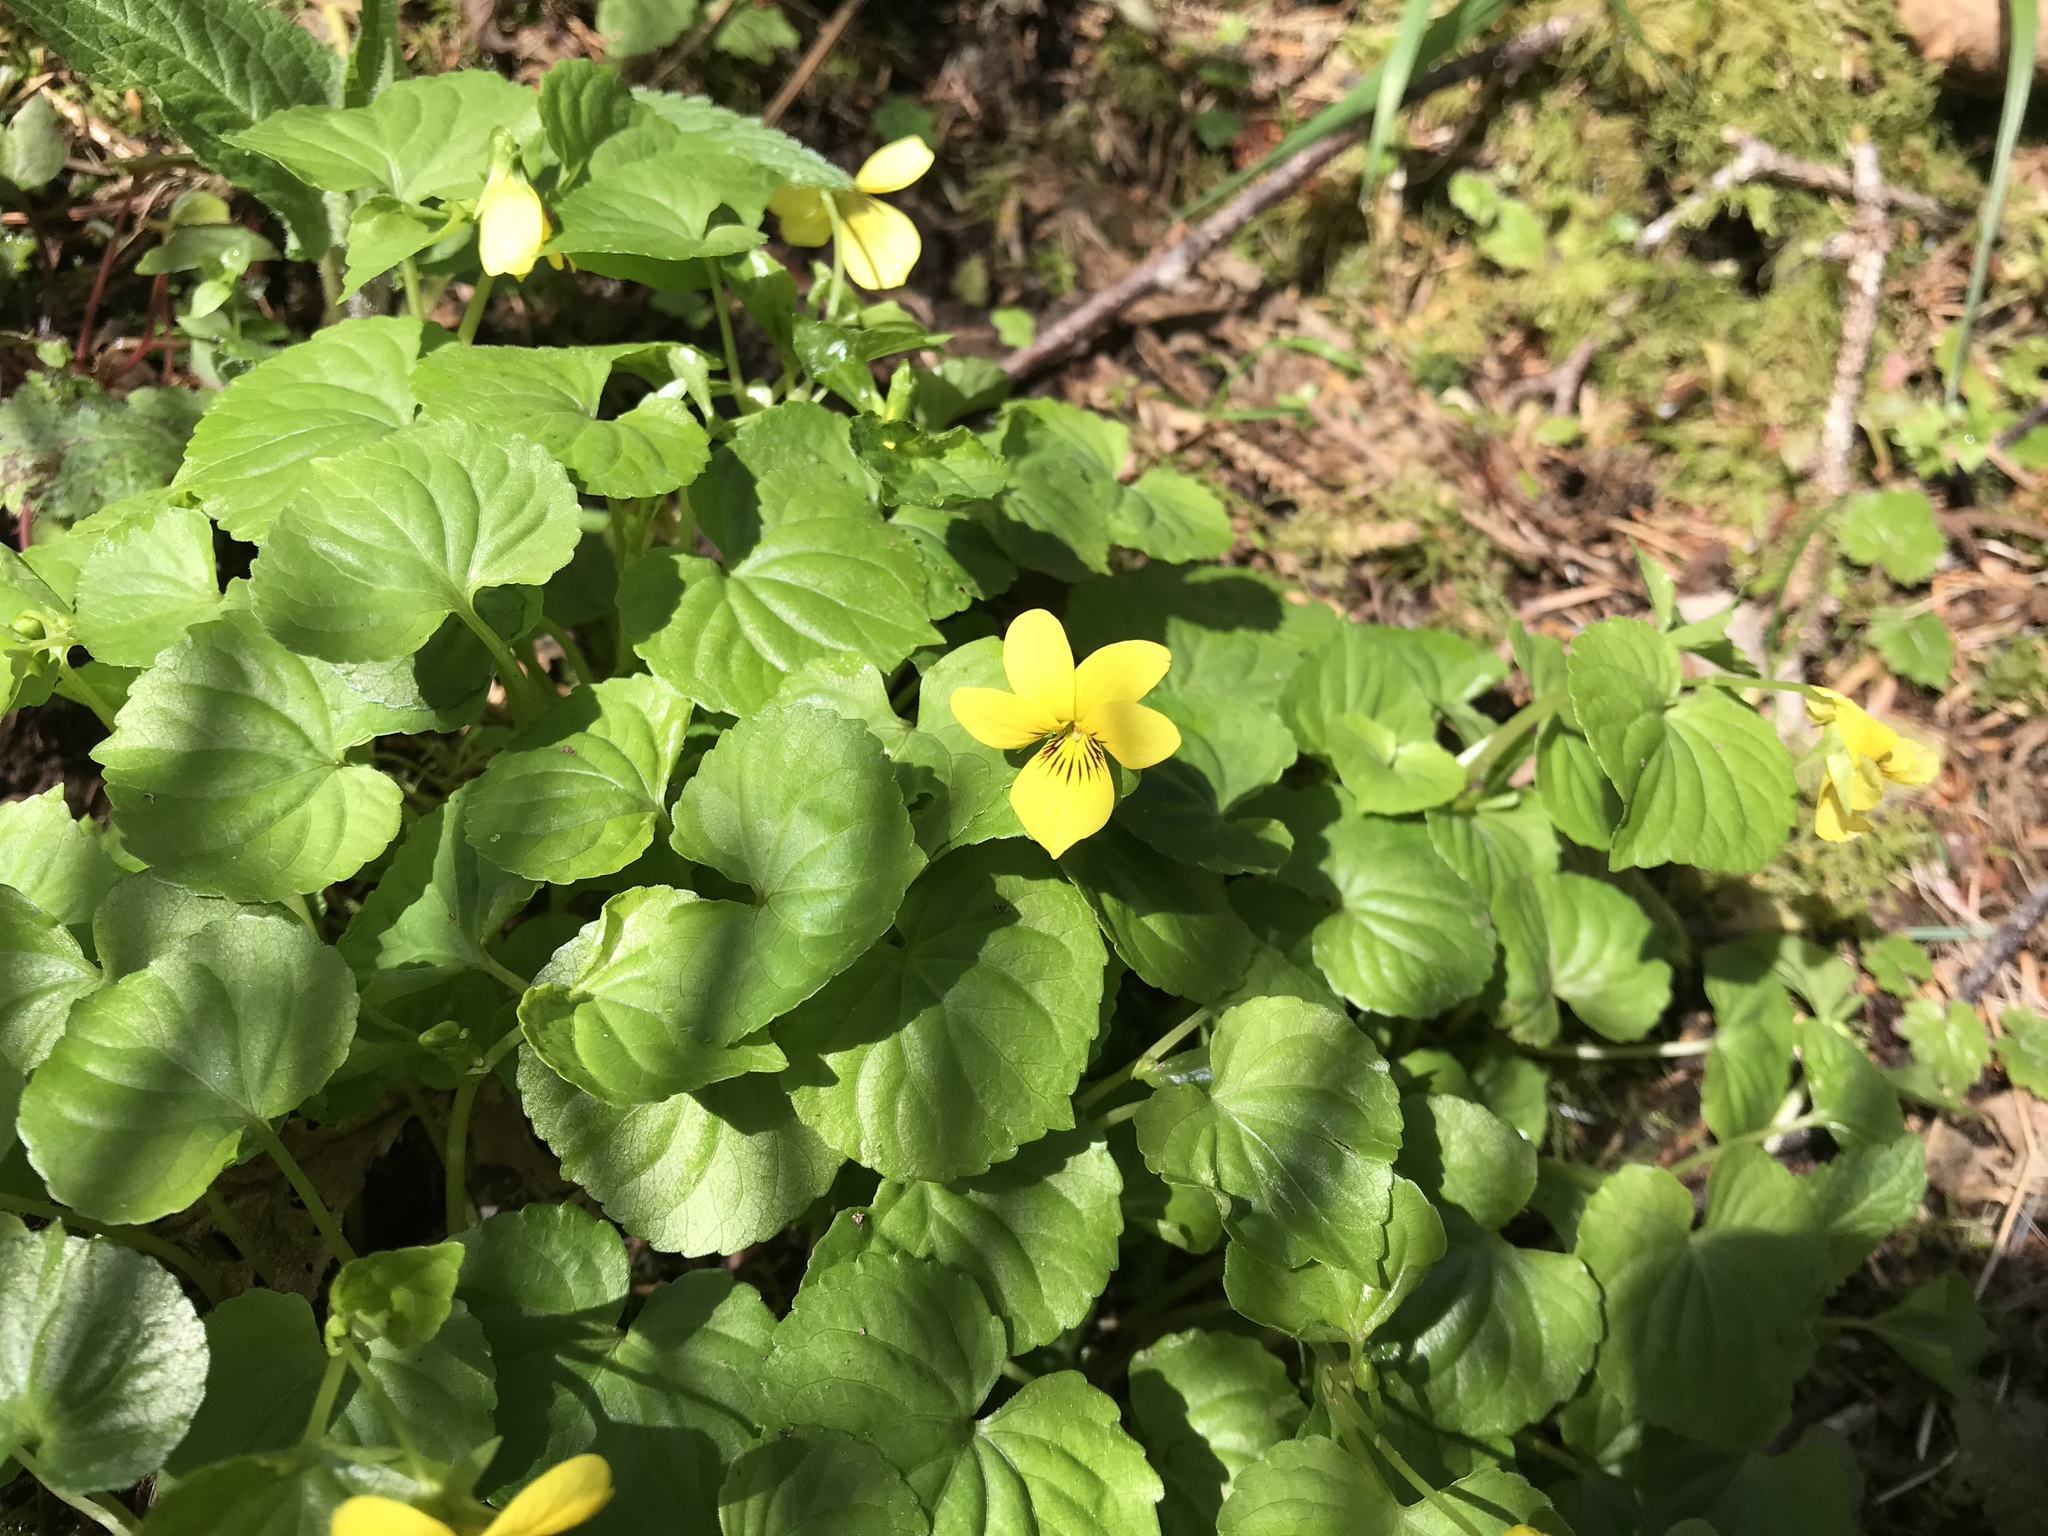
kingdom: Plantae
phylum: Tracheophyta
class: Magnoliopsida
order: Malpighiales
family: Violaceae
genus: Viola
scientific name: Viola glabella
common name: Stream violet
